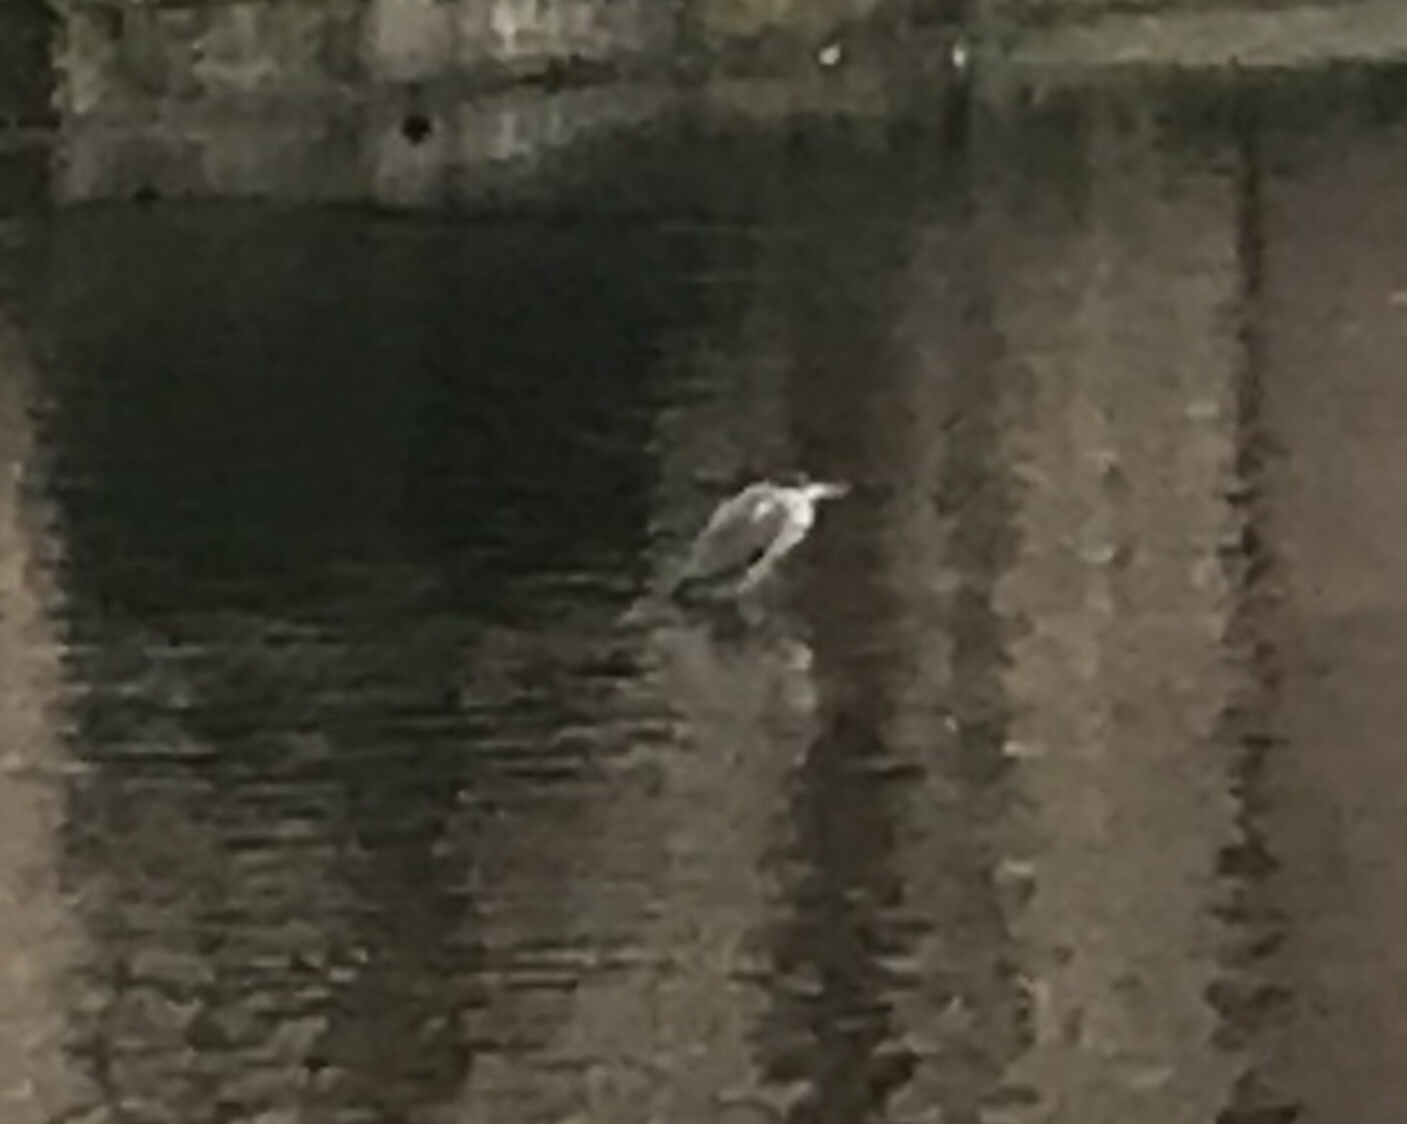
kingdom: Animalia
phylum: Chordata
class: Aves
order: Pelecaniformes
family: Ardeidae
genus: Ardea
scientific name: Ardea cinerea
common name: Grey heron
